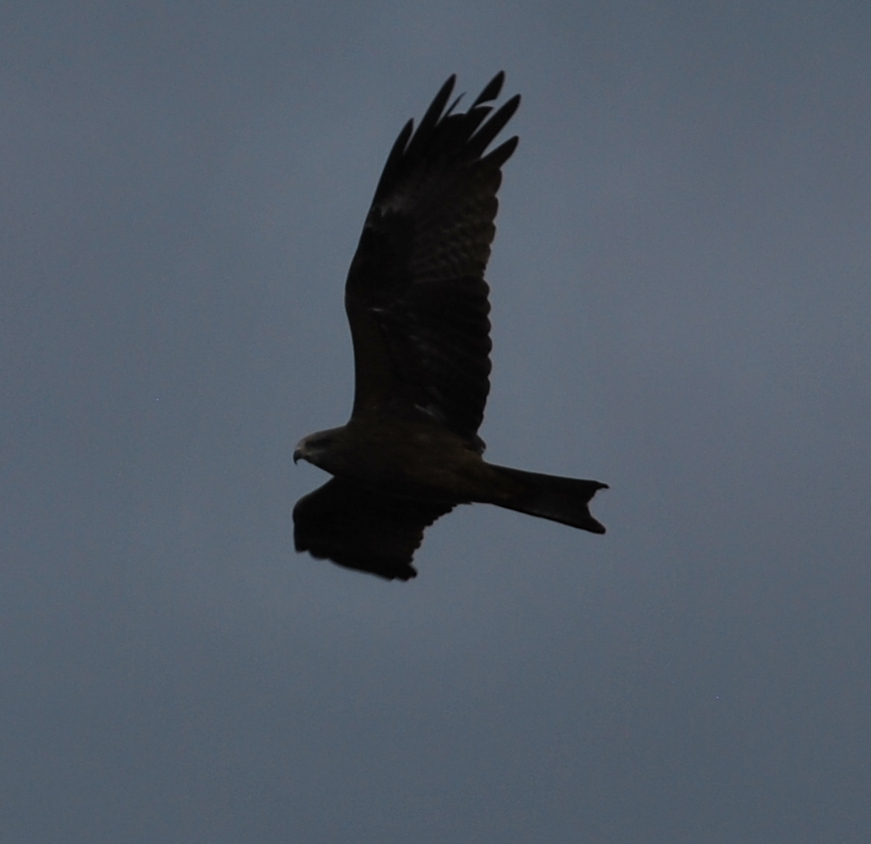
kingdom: Animalia
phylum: Chordata
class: Aves
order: Accipitriformes
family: Accipitridae
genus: Milvus
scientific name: Milvus migrans
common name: Black kite
